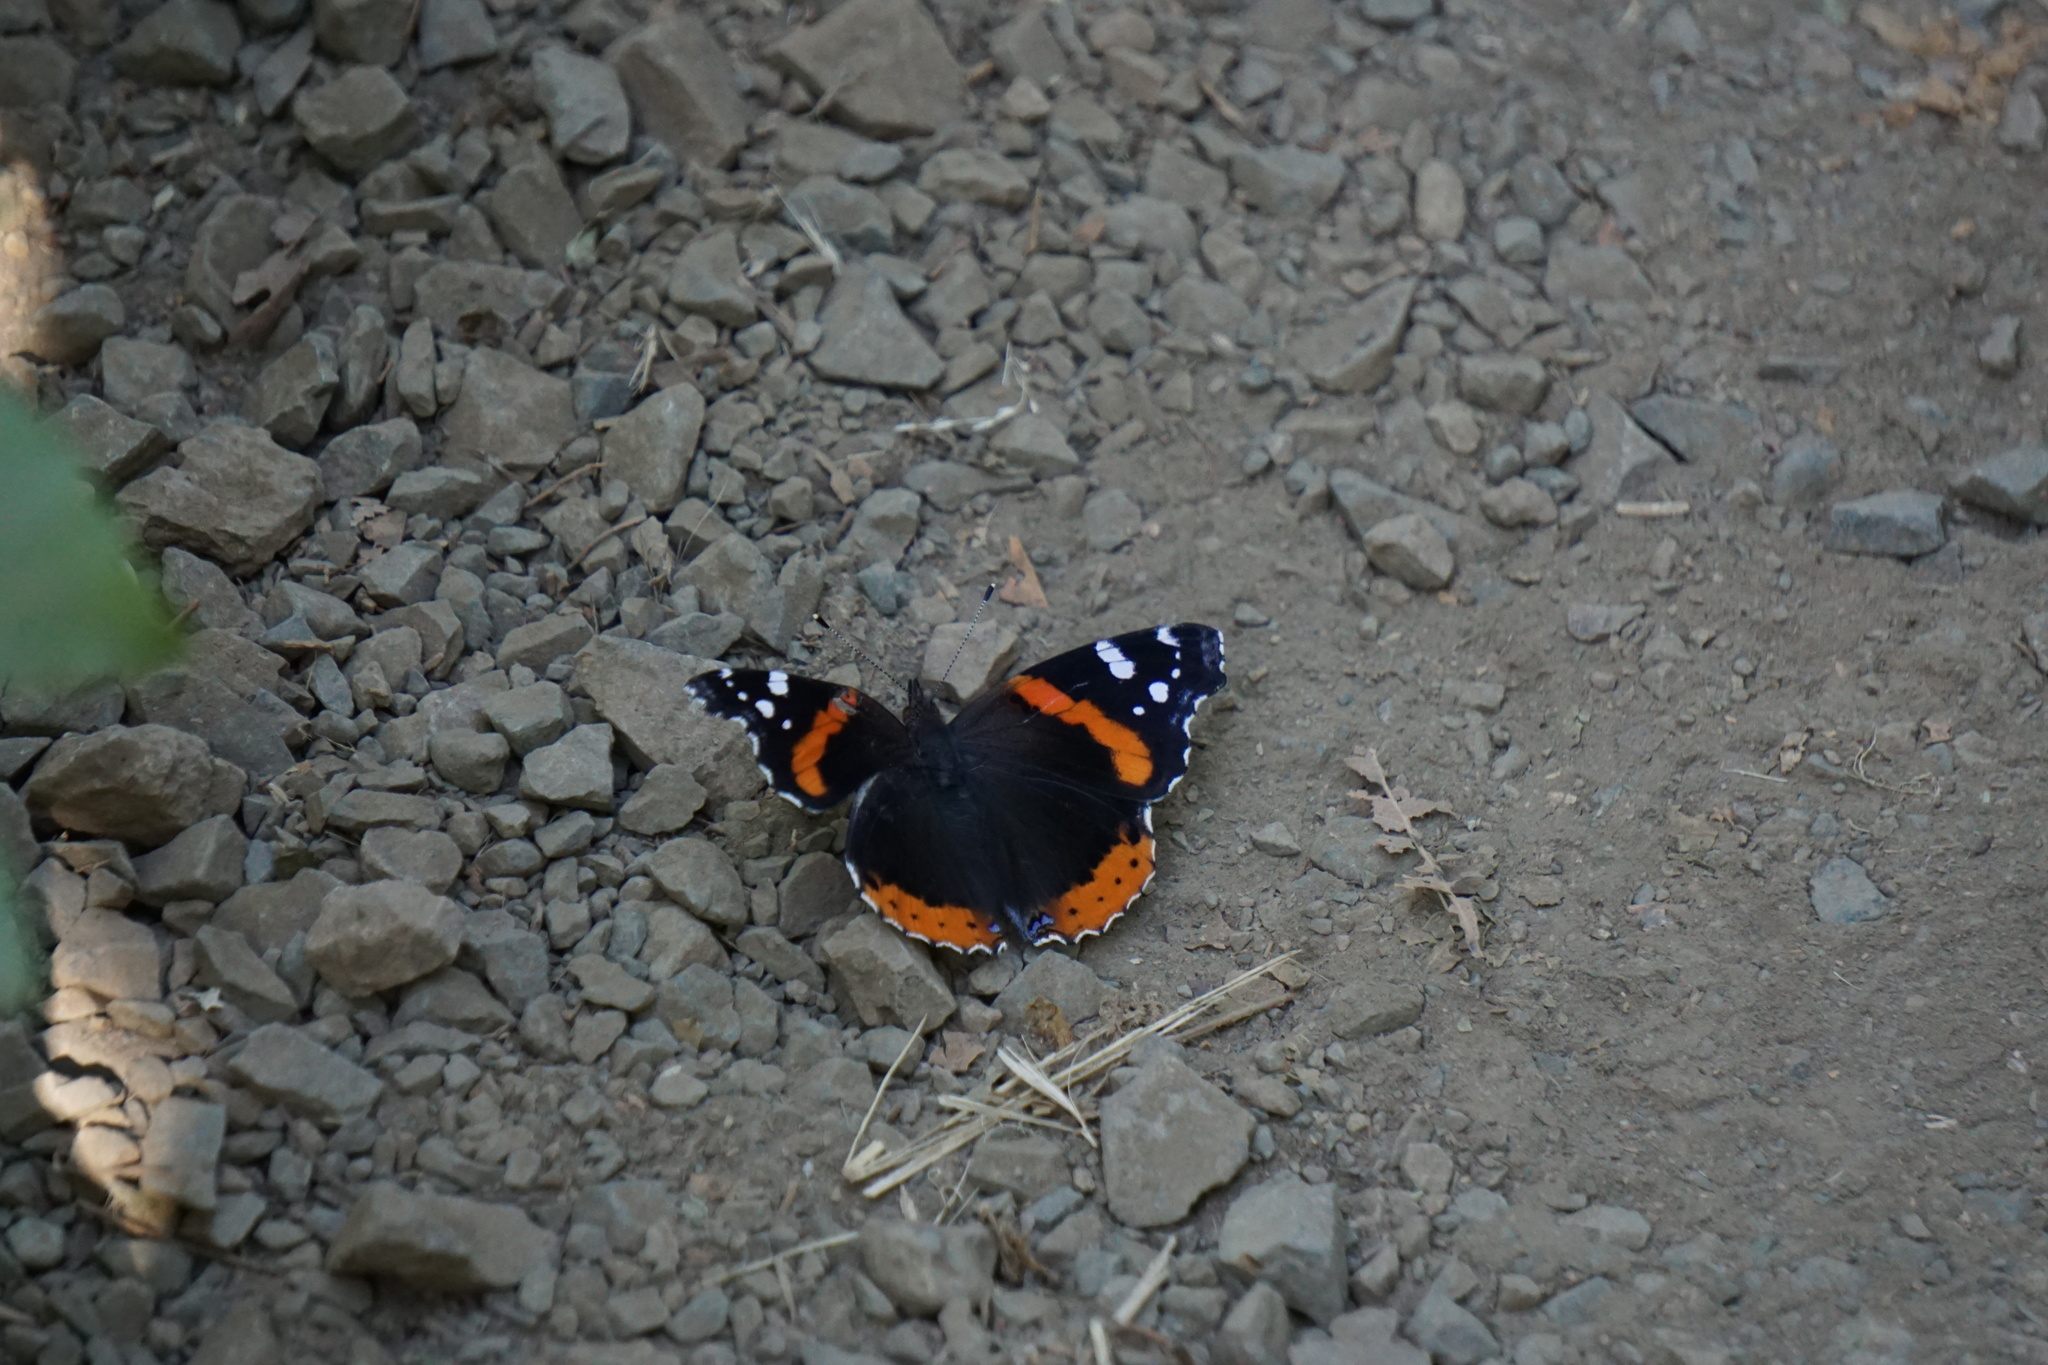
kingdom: Animalia
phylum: Arthropoda
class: Insecta
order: Lepidoptera
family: Nymphalidae
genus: Vanessa
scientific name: Vanessa atalanta
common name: Red admiral
